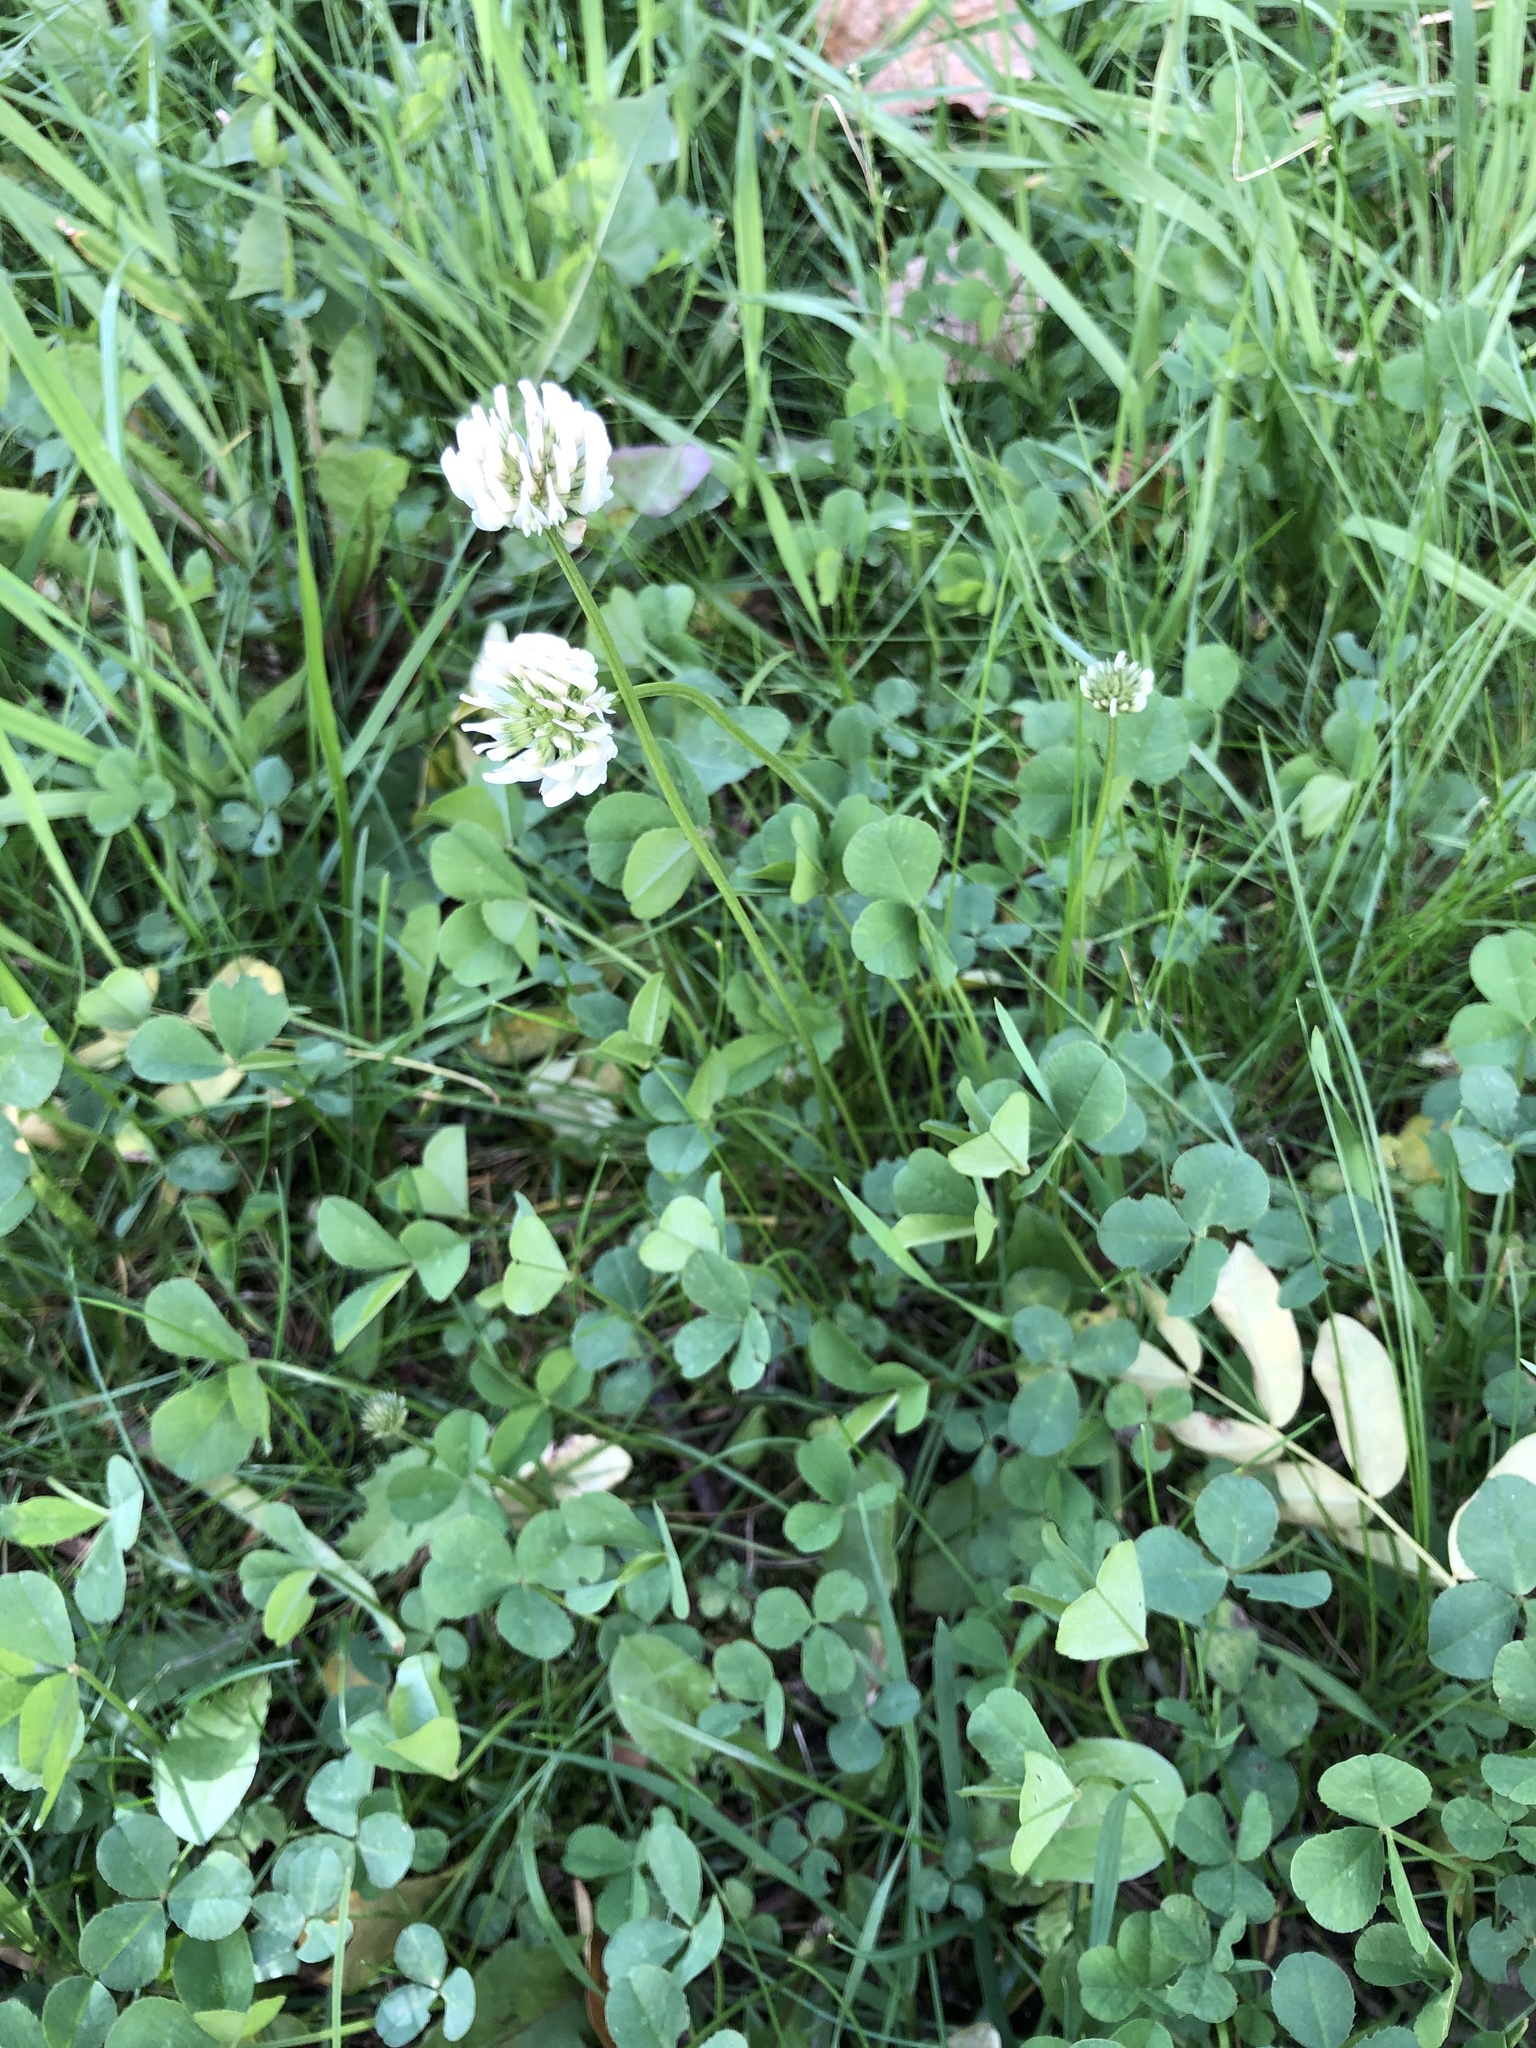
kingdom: Plantae
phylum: Tracheophyta
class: Magnoliopsida
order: Fabales
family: Fabaceae
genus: Trifolium
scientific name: Trifolium repens
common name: White clover
